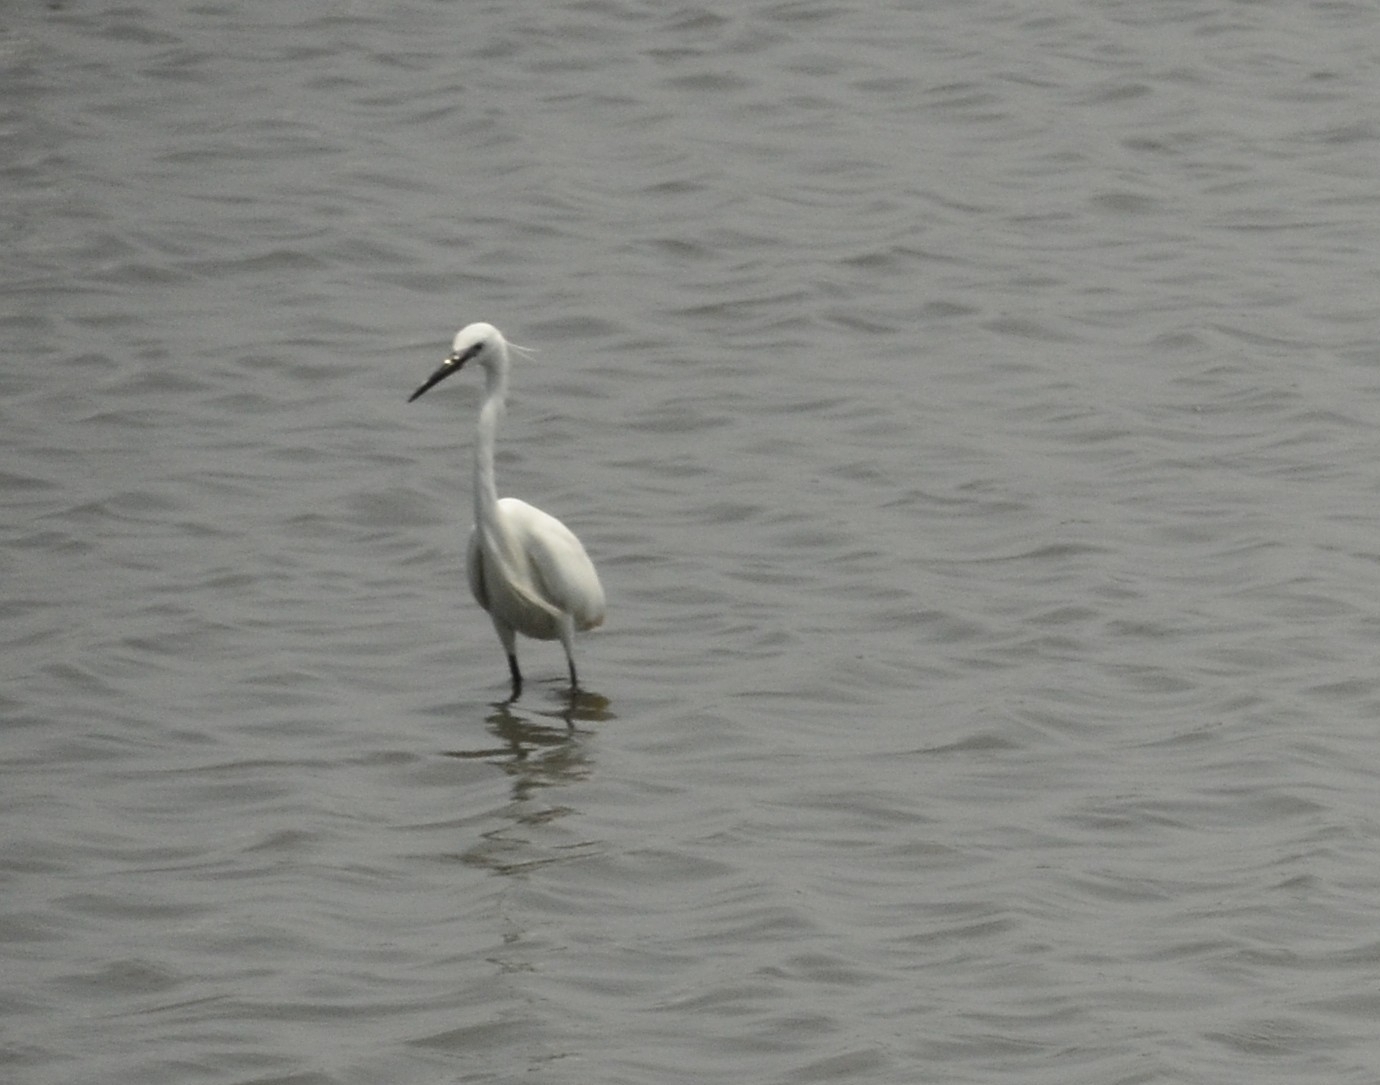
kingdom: Animalia
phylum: Chordata
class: Aves
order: Pelecaniformes
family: Ardeidae
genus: Egretta
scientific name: Egretta garzetta
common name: Little egret
